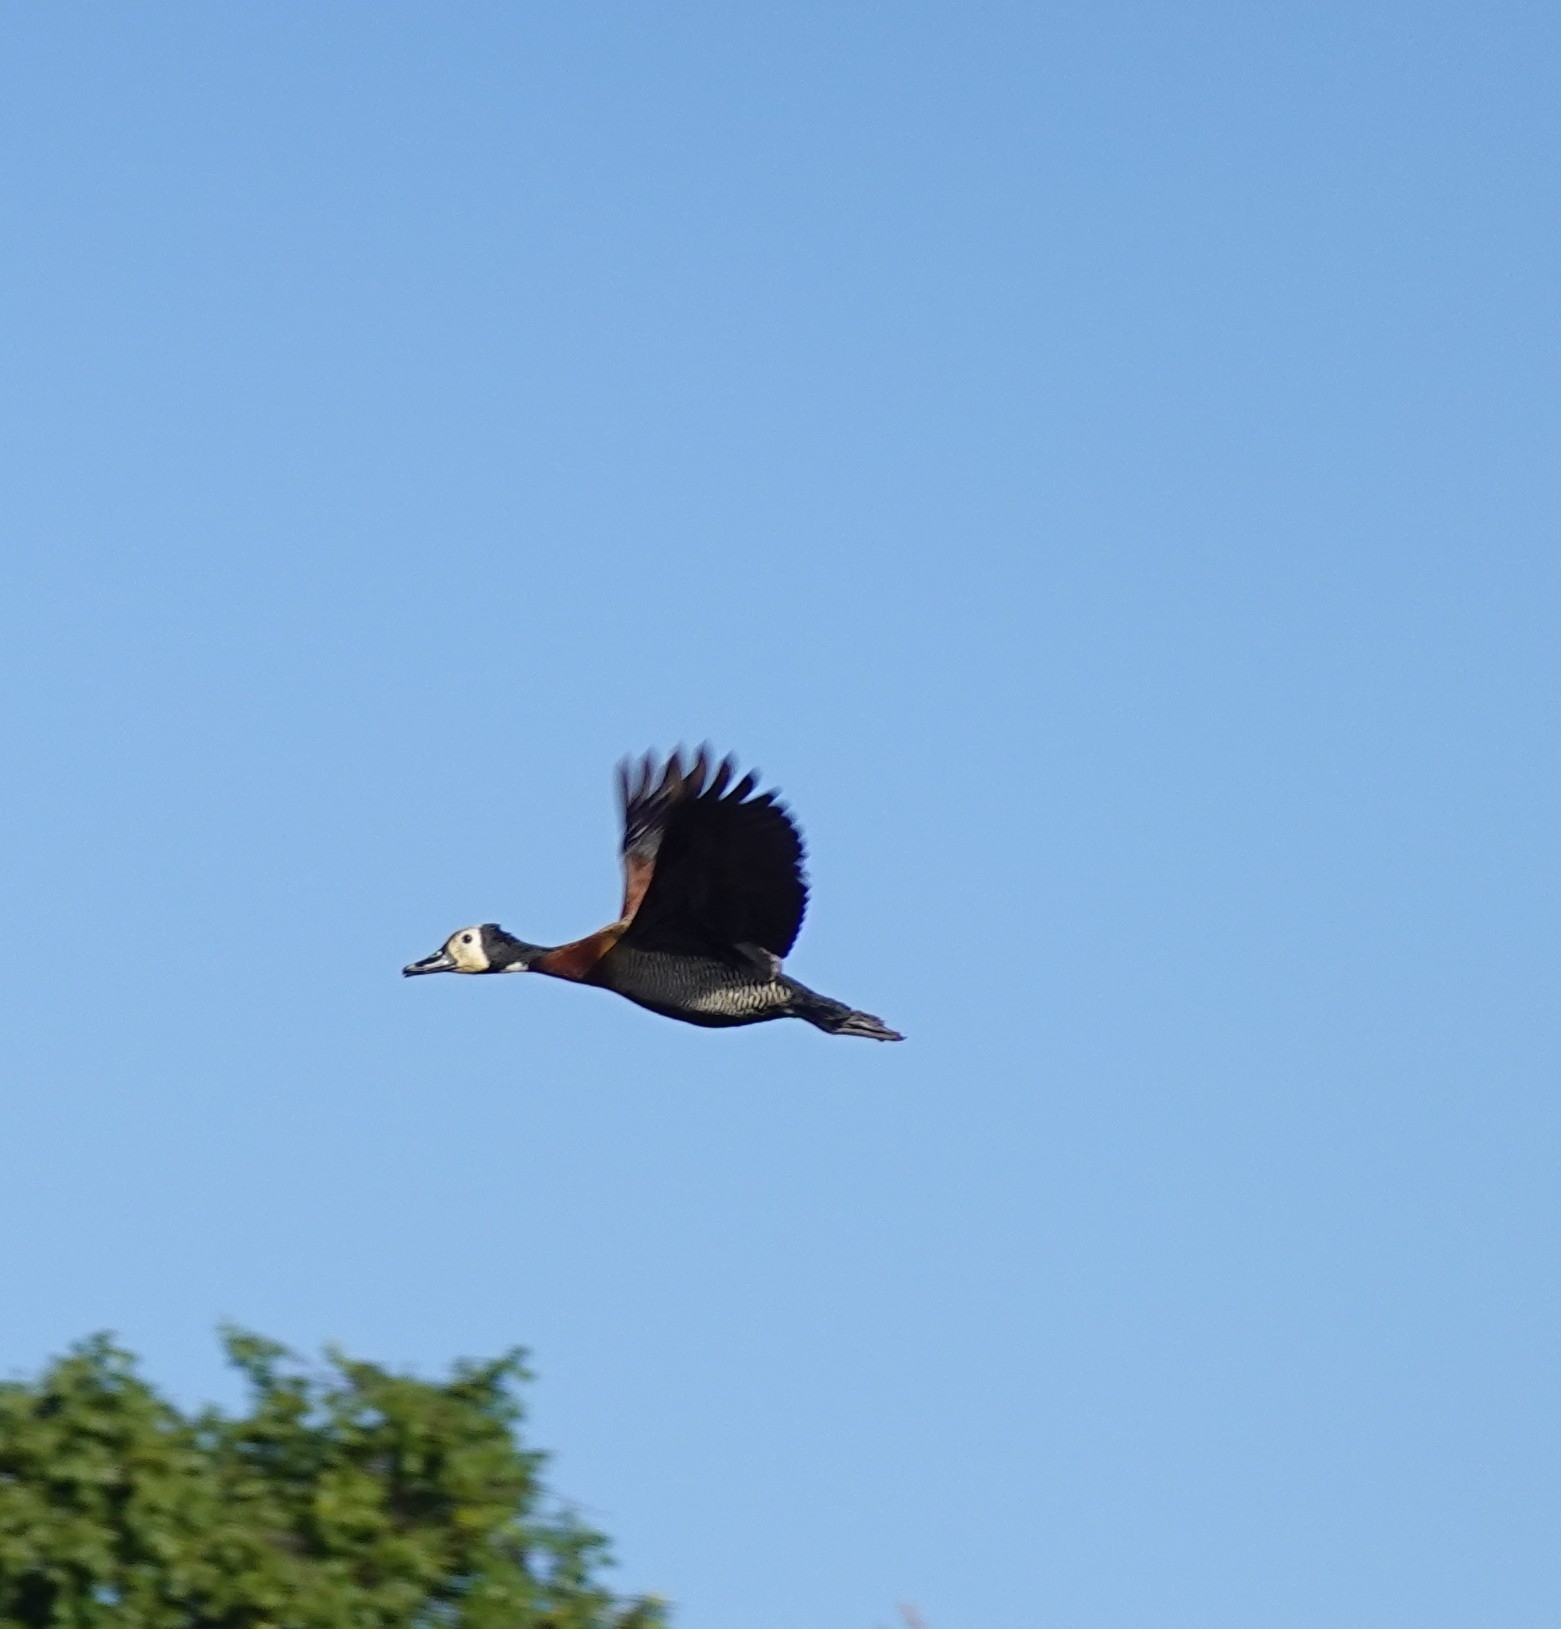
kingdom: Animalia
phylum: Chordata
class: Aves
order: Anseriformes
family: Anatidae
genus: Dendrocygna
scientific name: Dendrocygna viduata
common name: White-faced whistling duck
